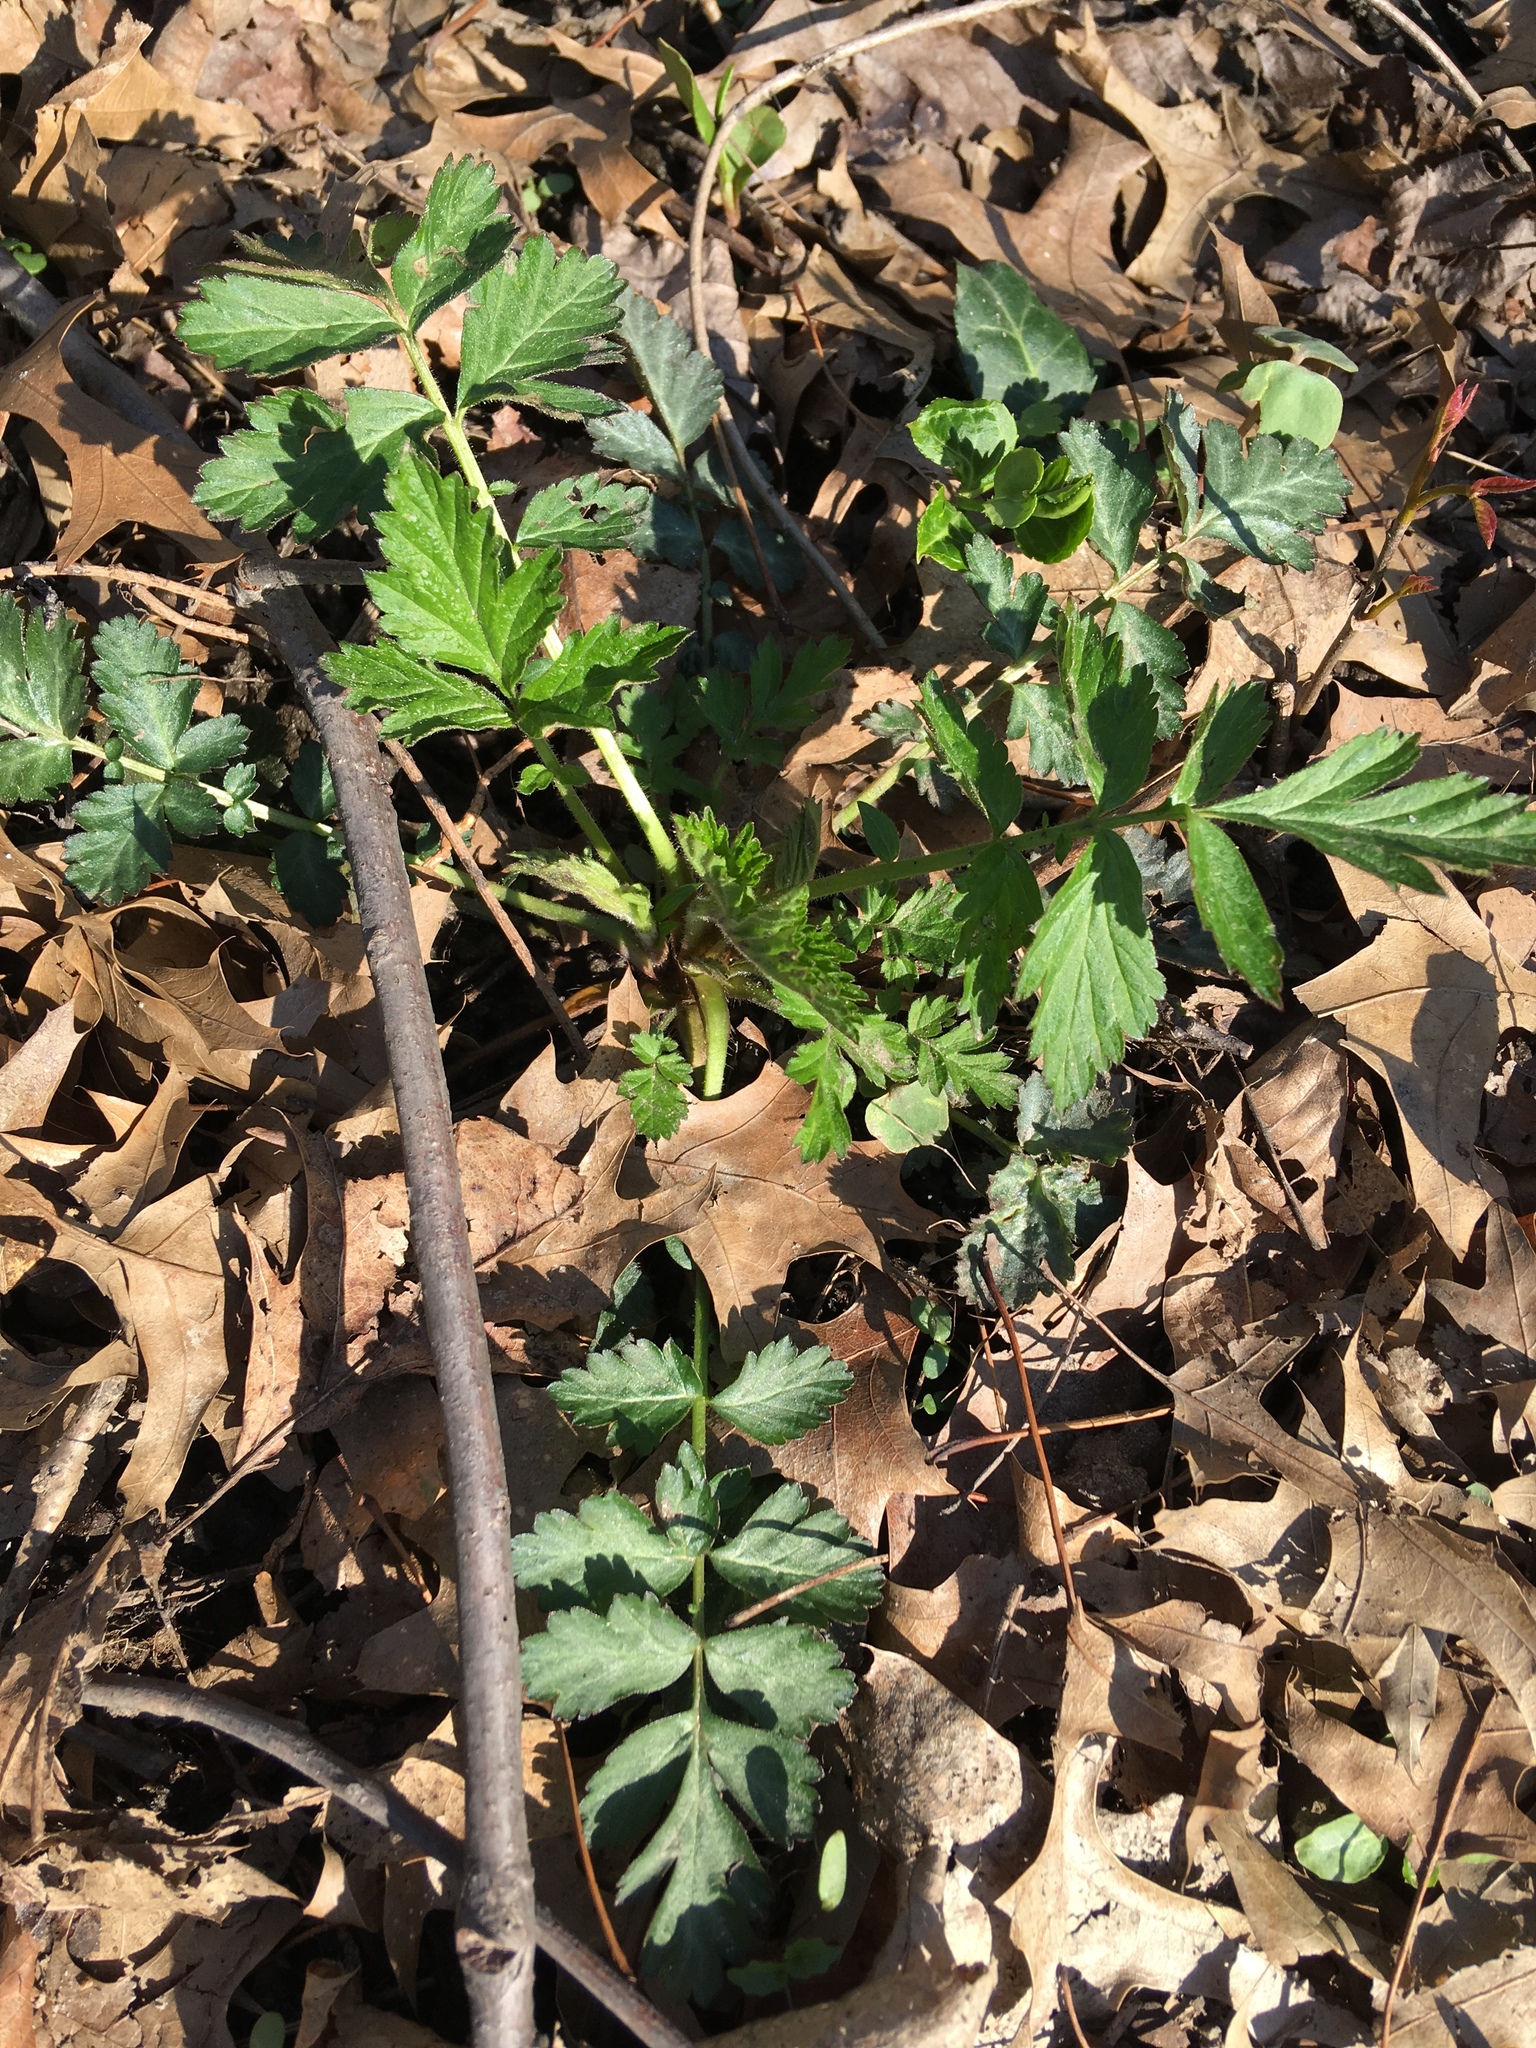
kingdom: Plantae
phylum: Tracheophyta
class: Magnoliopsida
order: Rosales
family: Rosaceae
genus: Geum
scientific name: Geum canadense
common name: White avens
